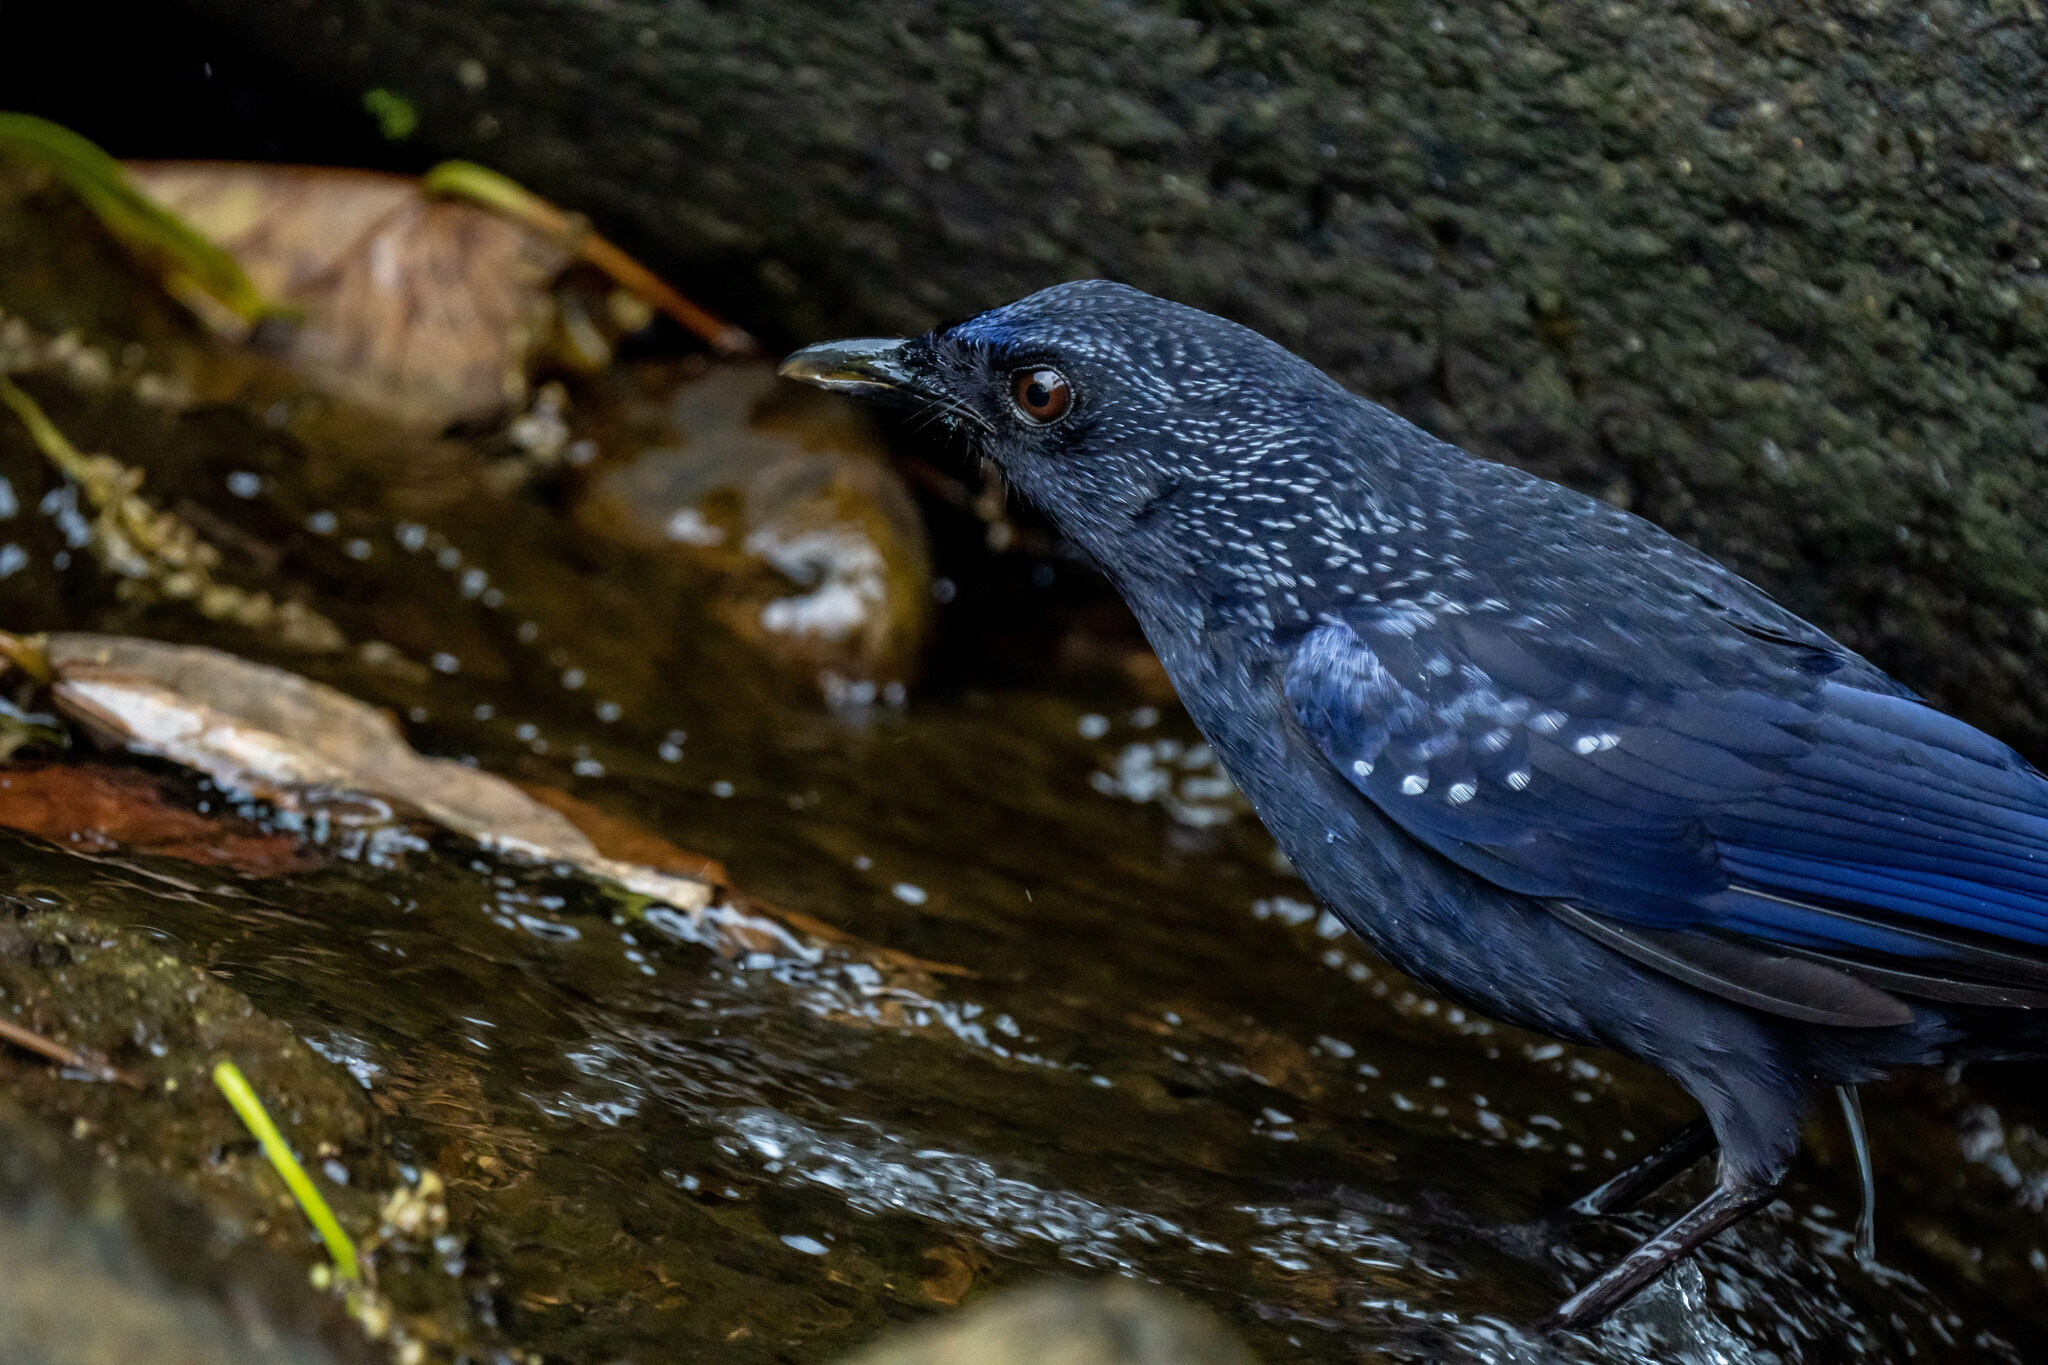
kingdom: Animalia
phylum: Chordata
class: Aves
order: Passeriformes
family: Muscicapidae
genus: Myophonus
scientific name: Myophonus caeruleus
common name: Blue whistling-thrush
